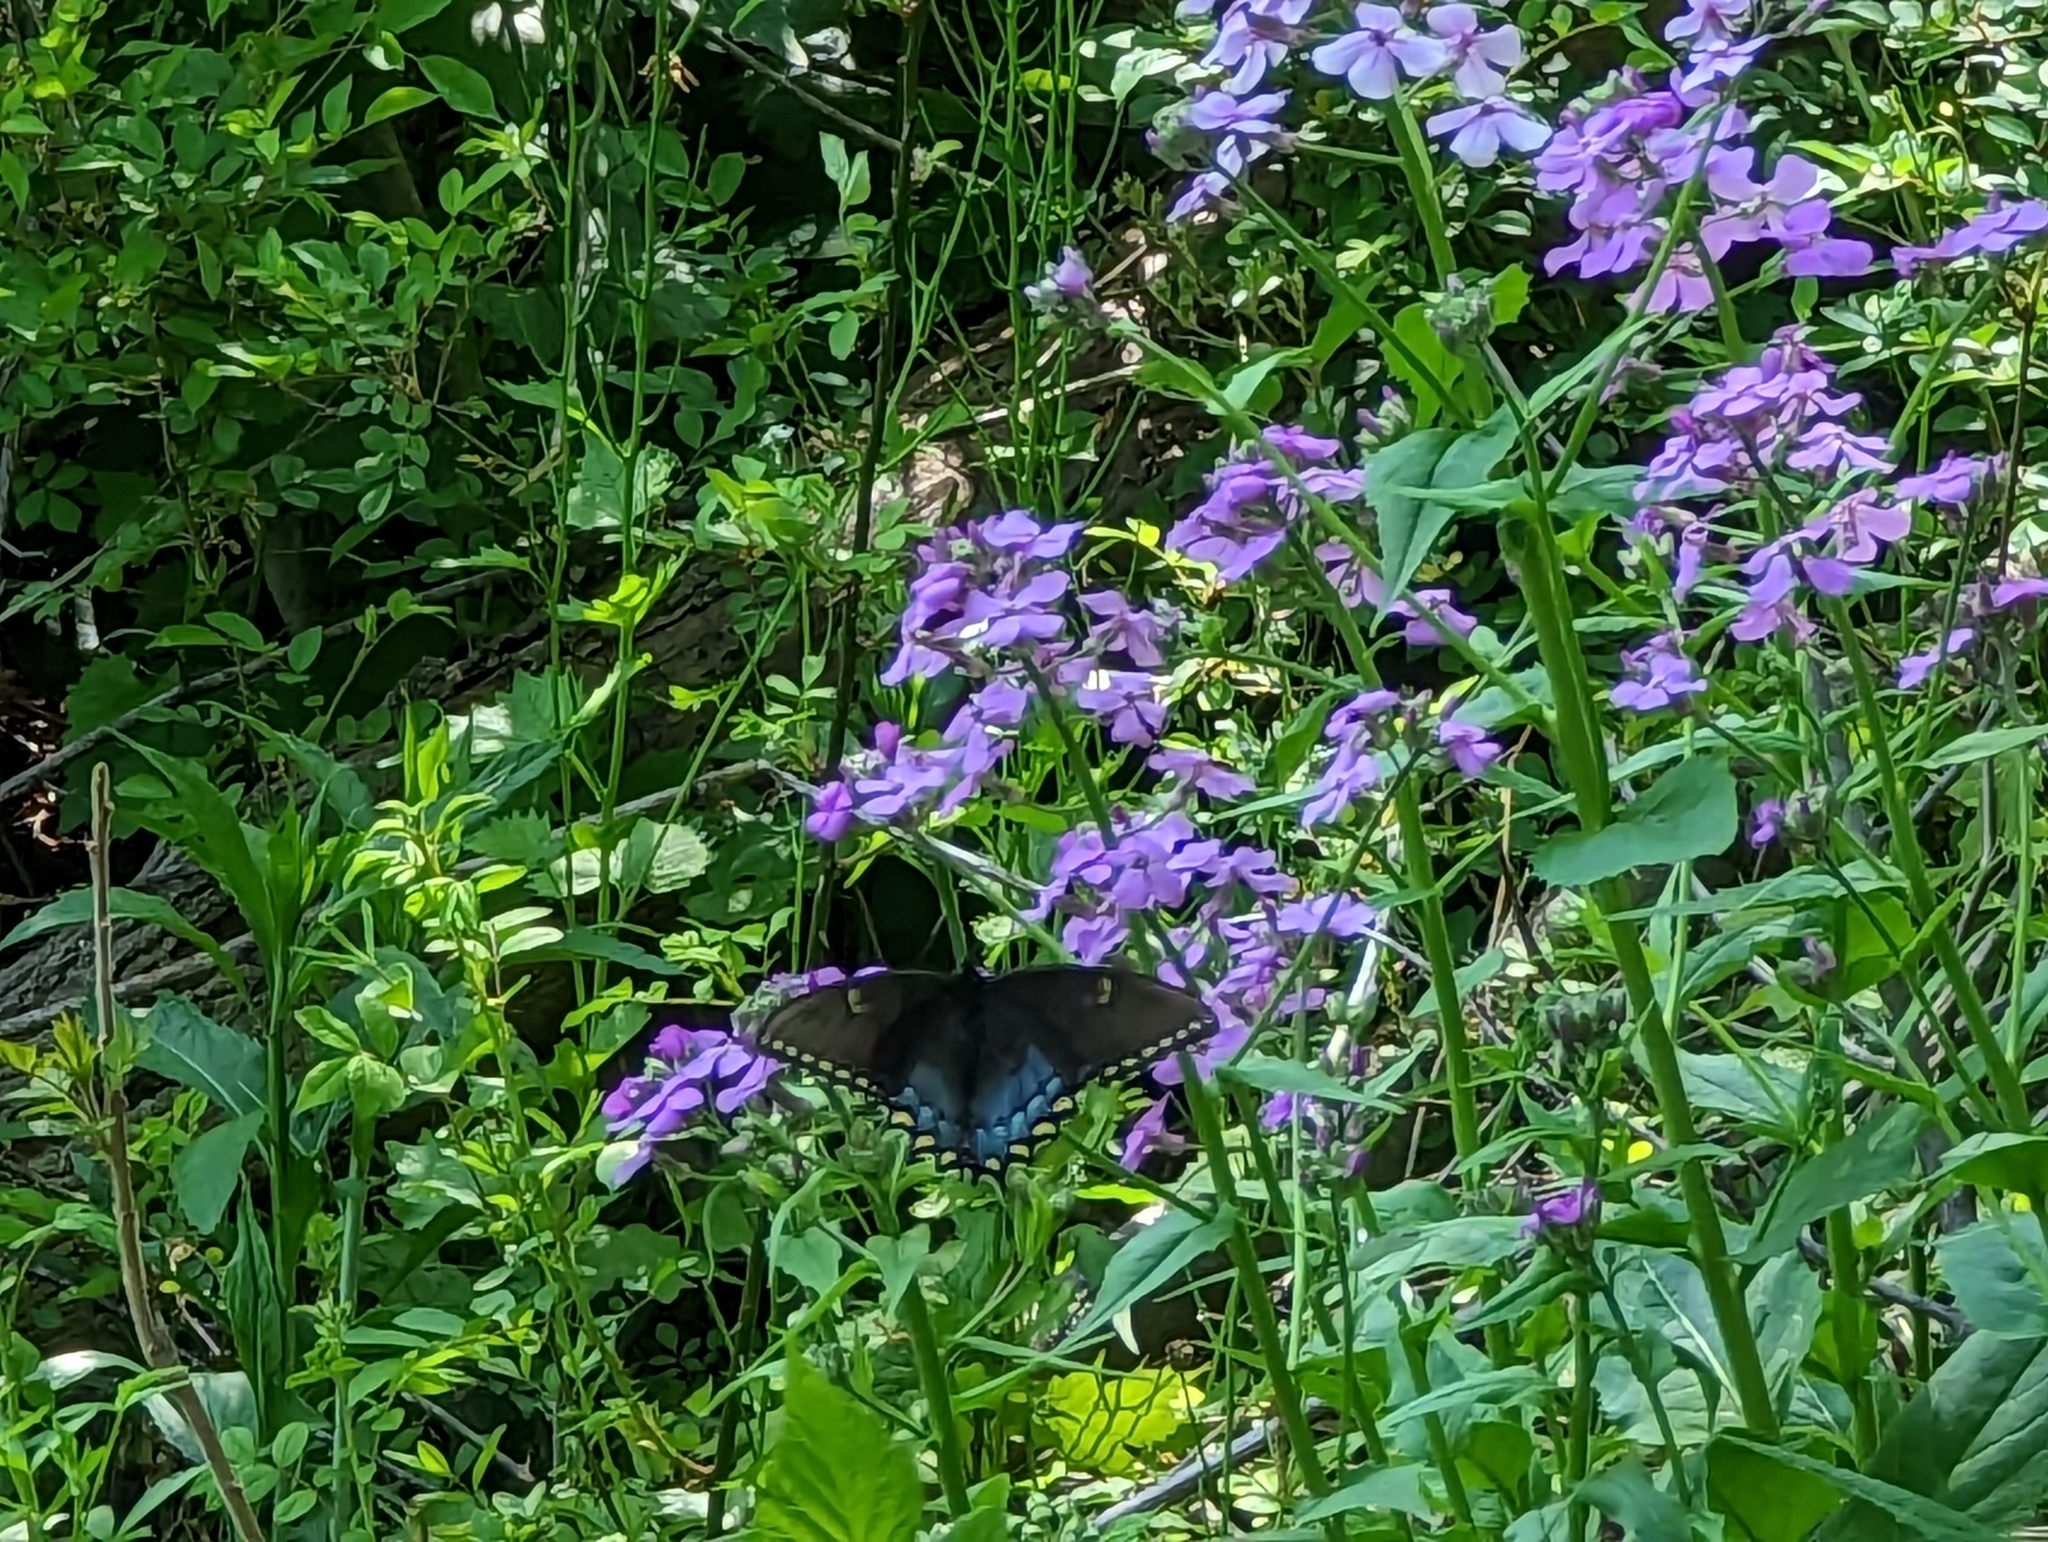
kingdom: Animalia
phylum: Arthropoda
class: Insecta
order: Lepidoptera
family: Papilionidae
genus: Papilio
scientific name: Papilio glaucus
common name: Tiger swallowtail
